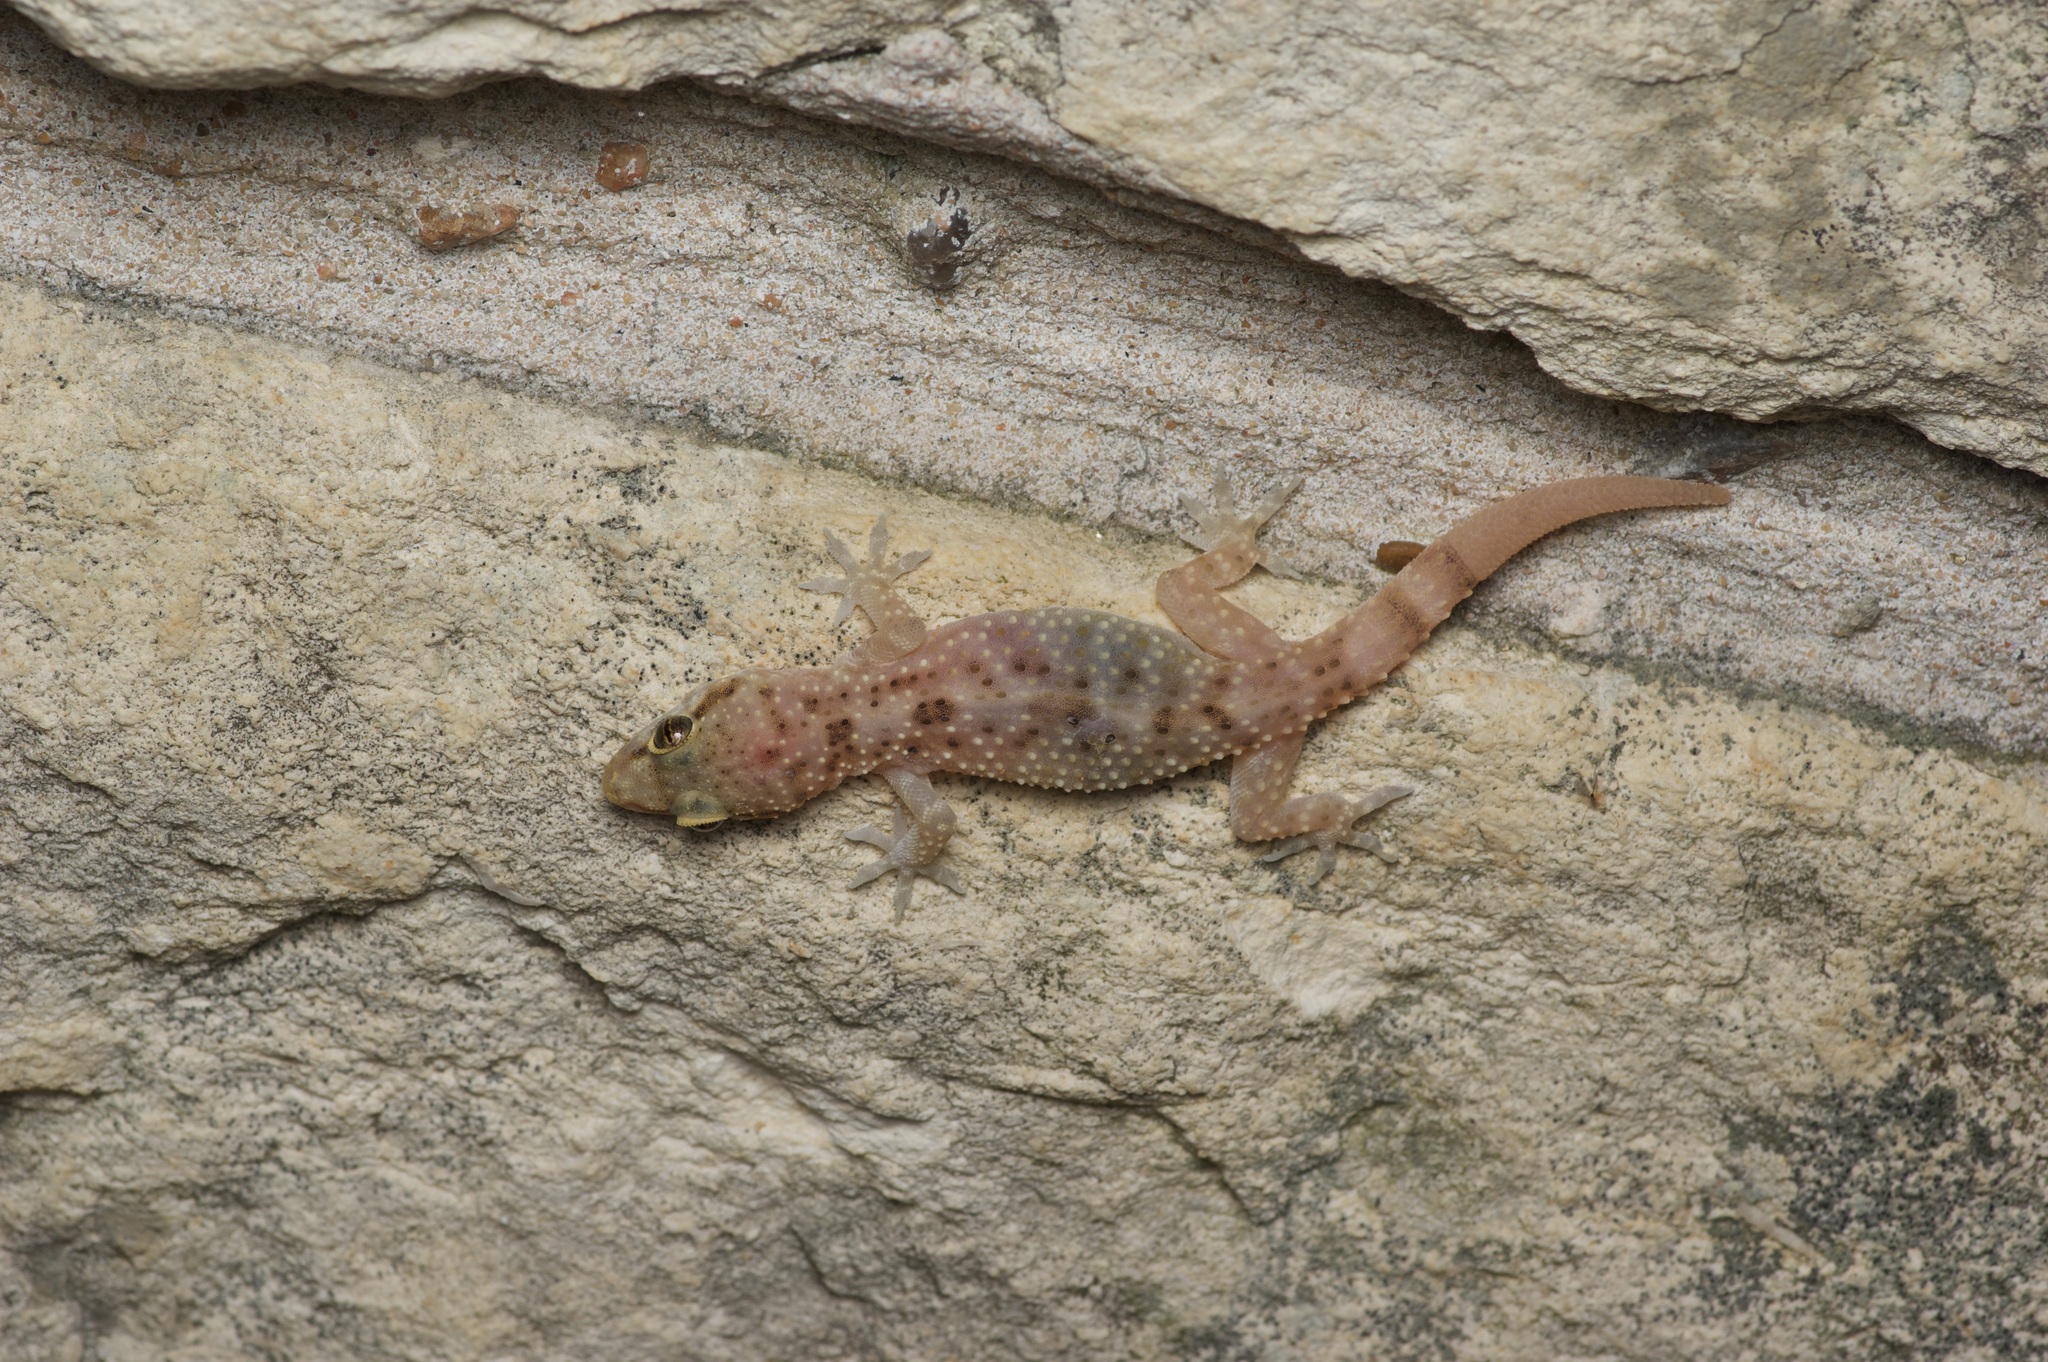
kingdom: Animalia
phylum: Chordata
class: Squamata
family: Gekkonidae
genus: Hemidactylus
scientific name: Hemidactylus turcicus
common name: Turkish gecko
